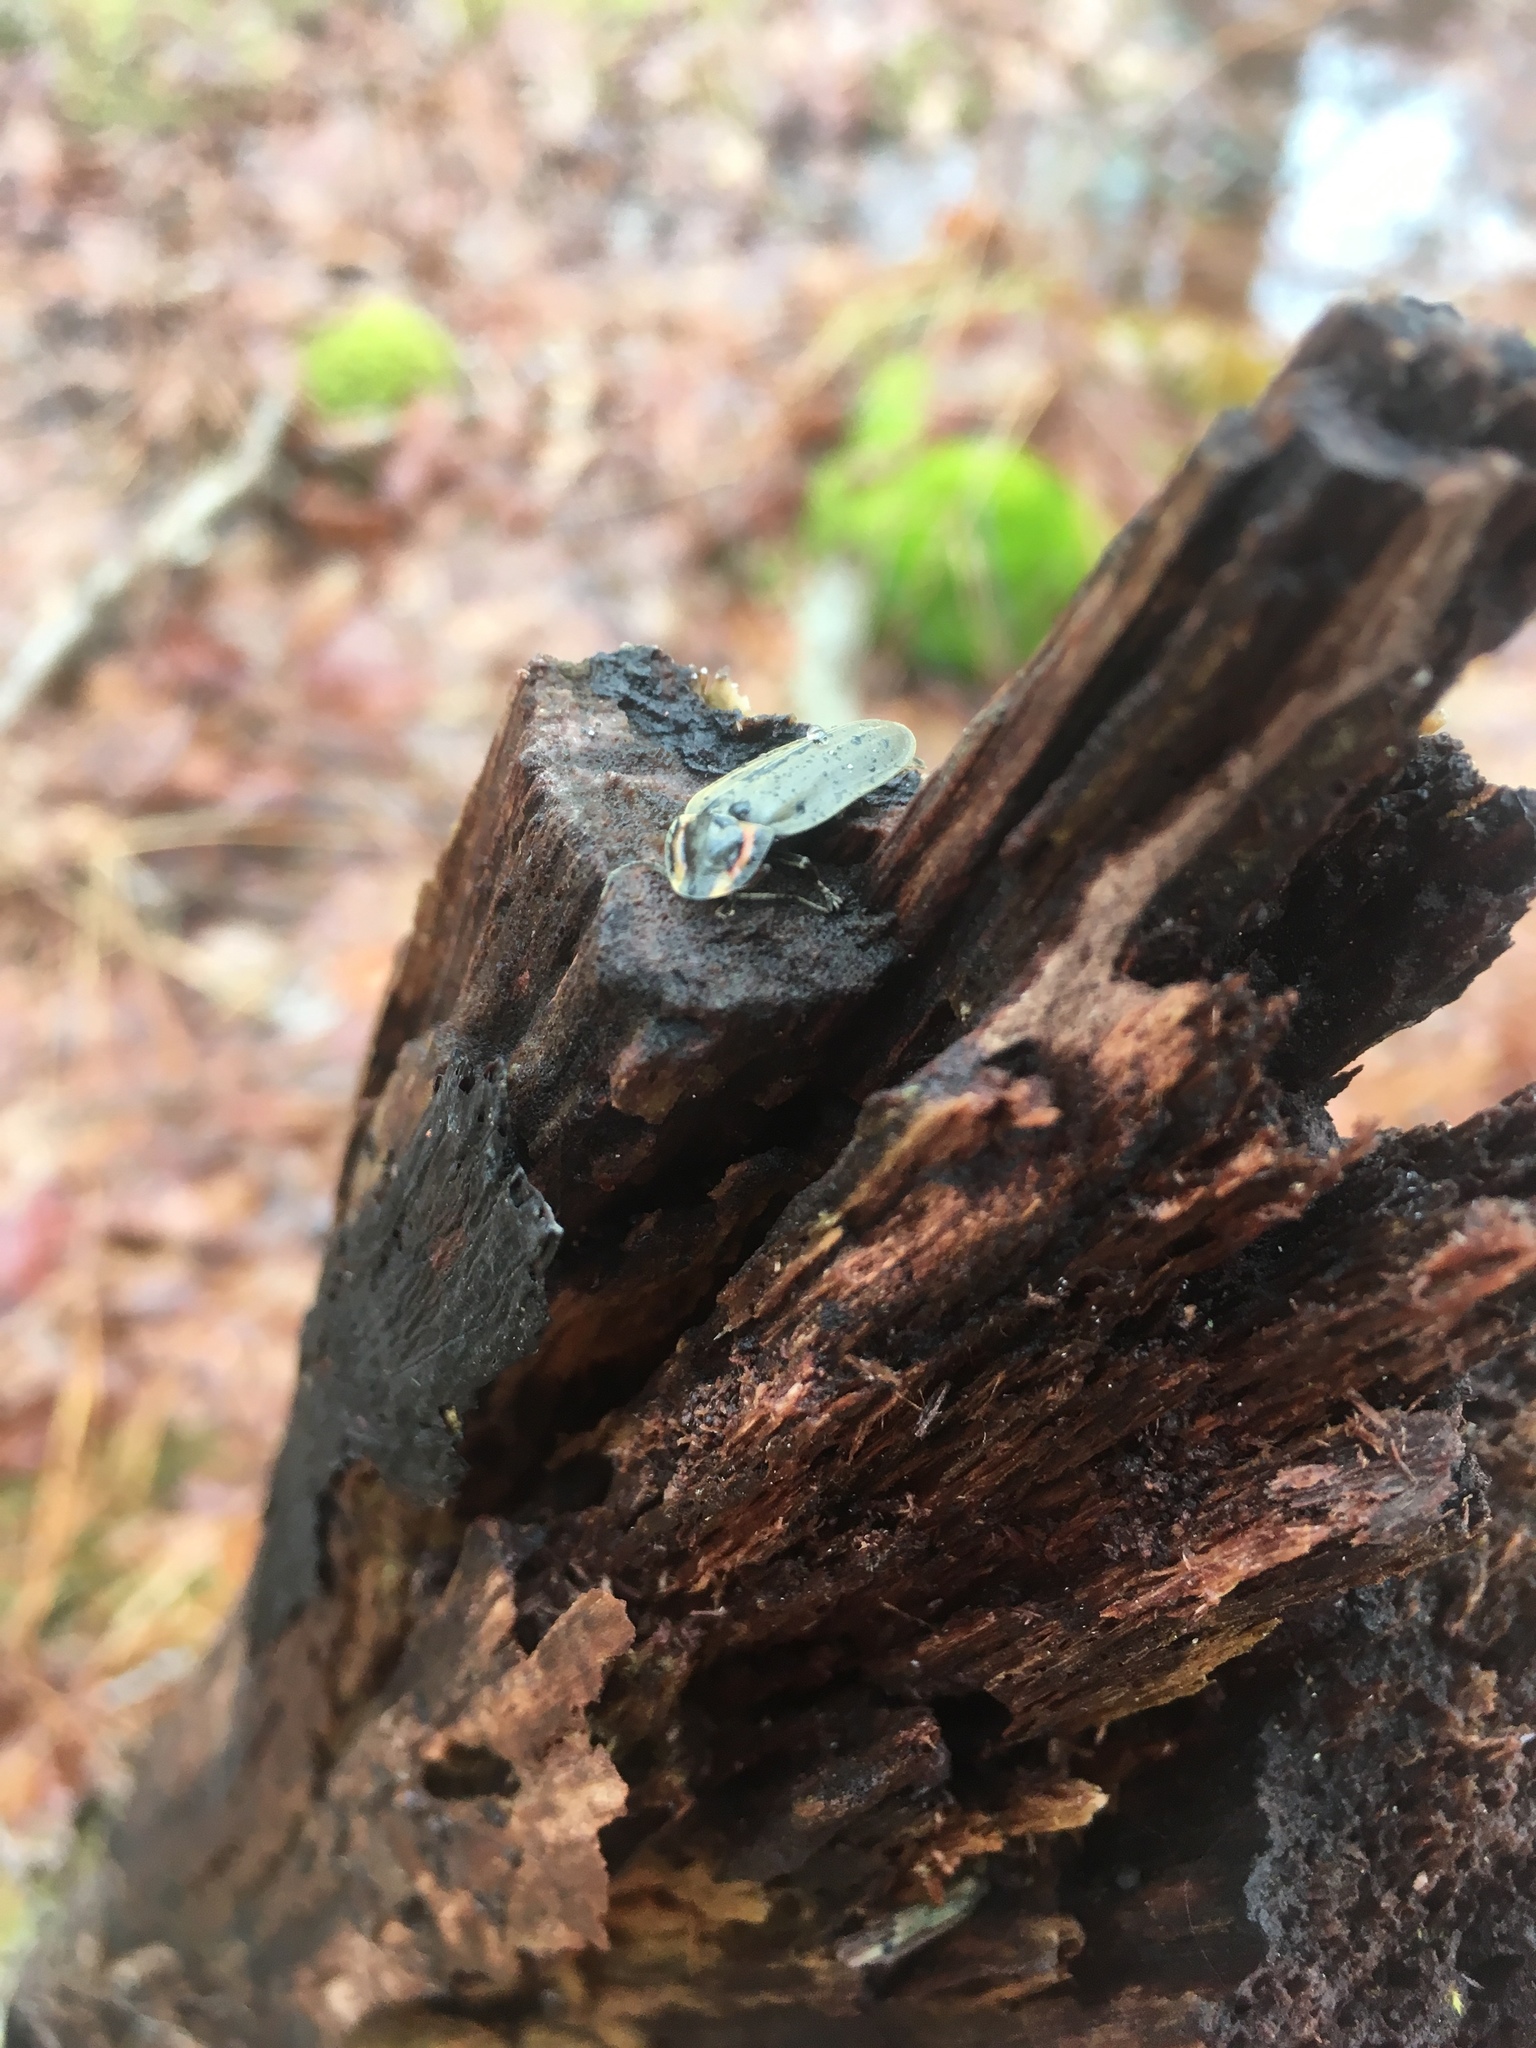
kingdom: Animalia
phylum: Arthropoda
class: Insecta
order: Coleoptera
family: Lampyridae
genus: Photinus
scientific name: Photinus corrusca
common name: Winter firefly
